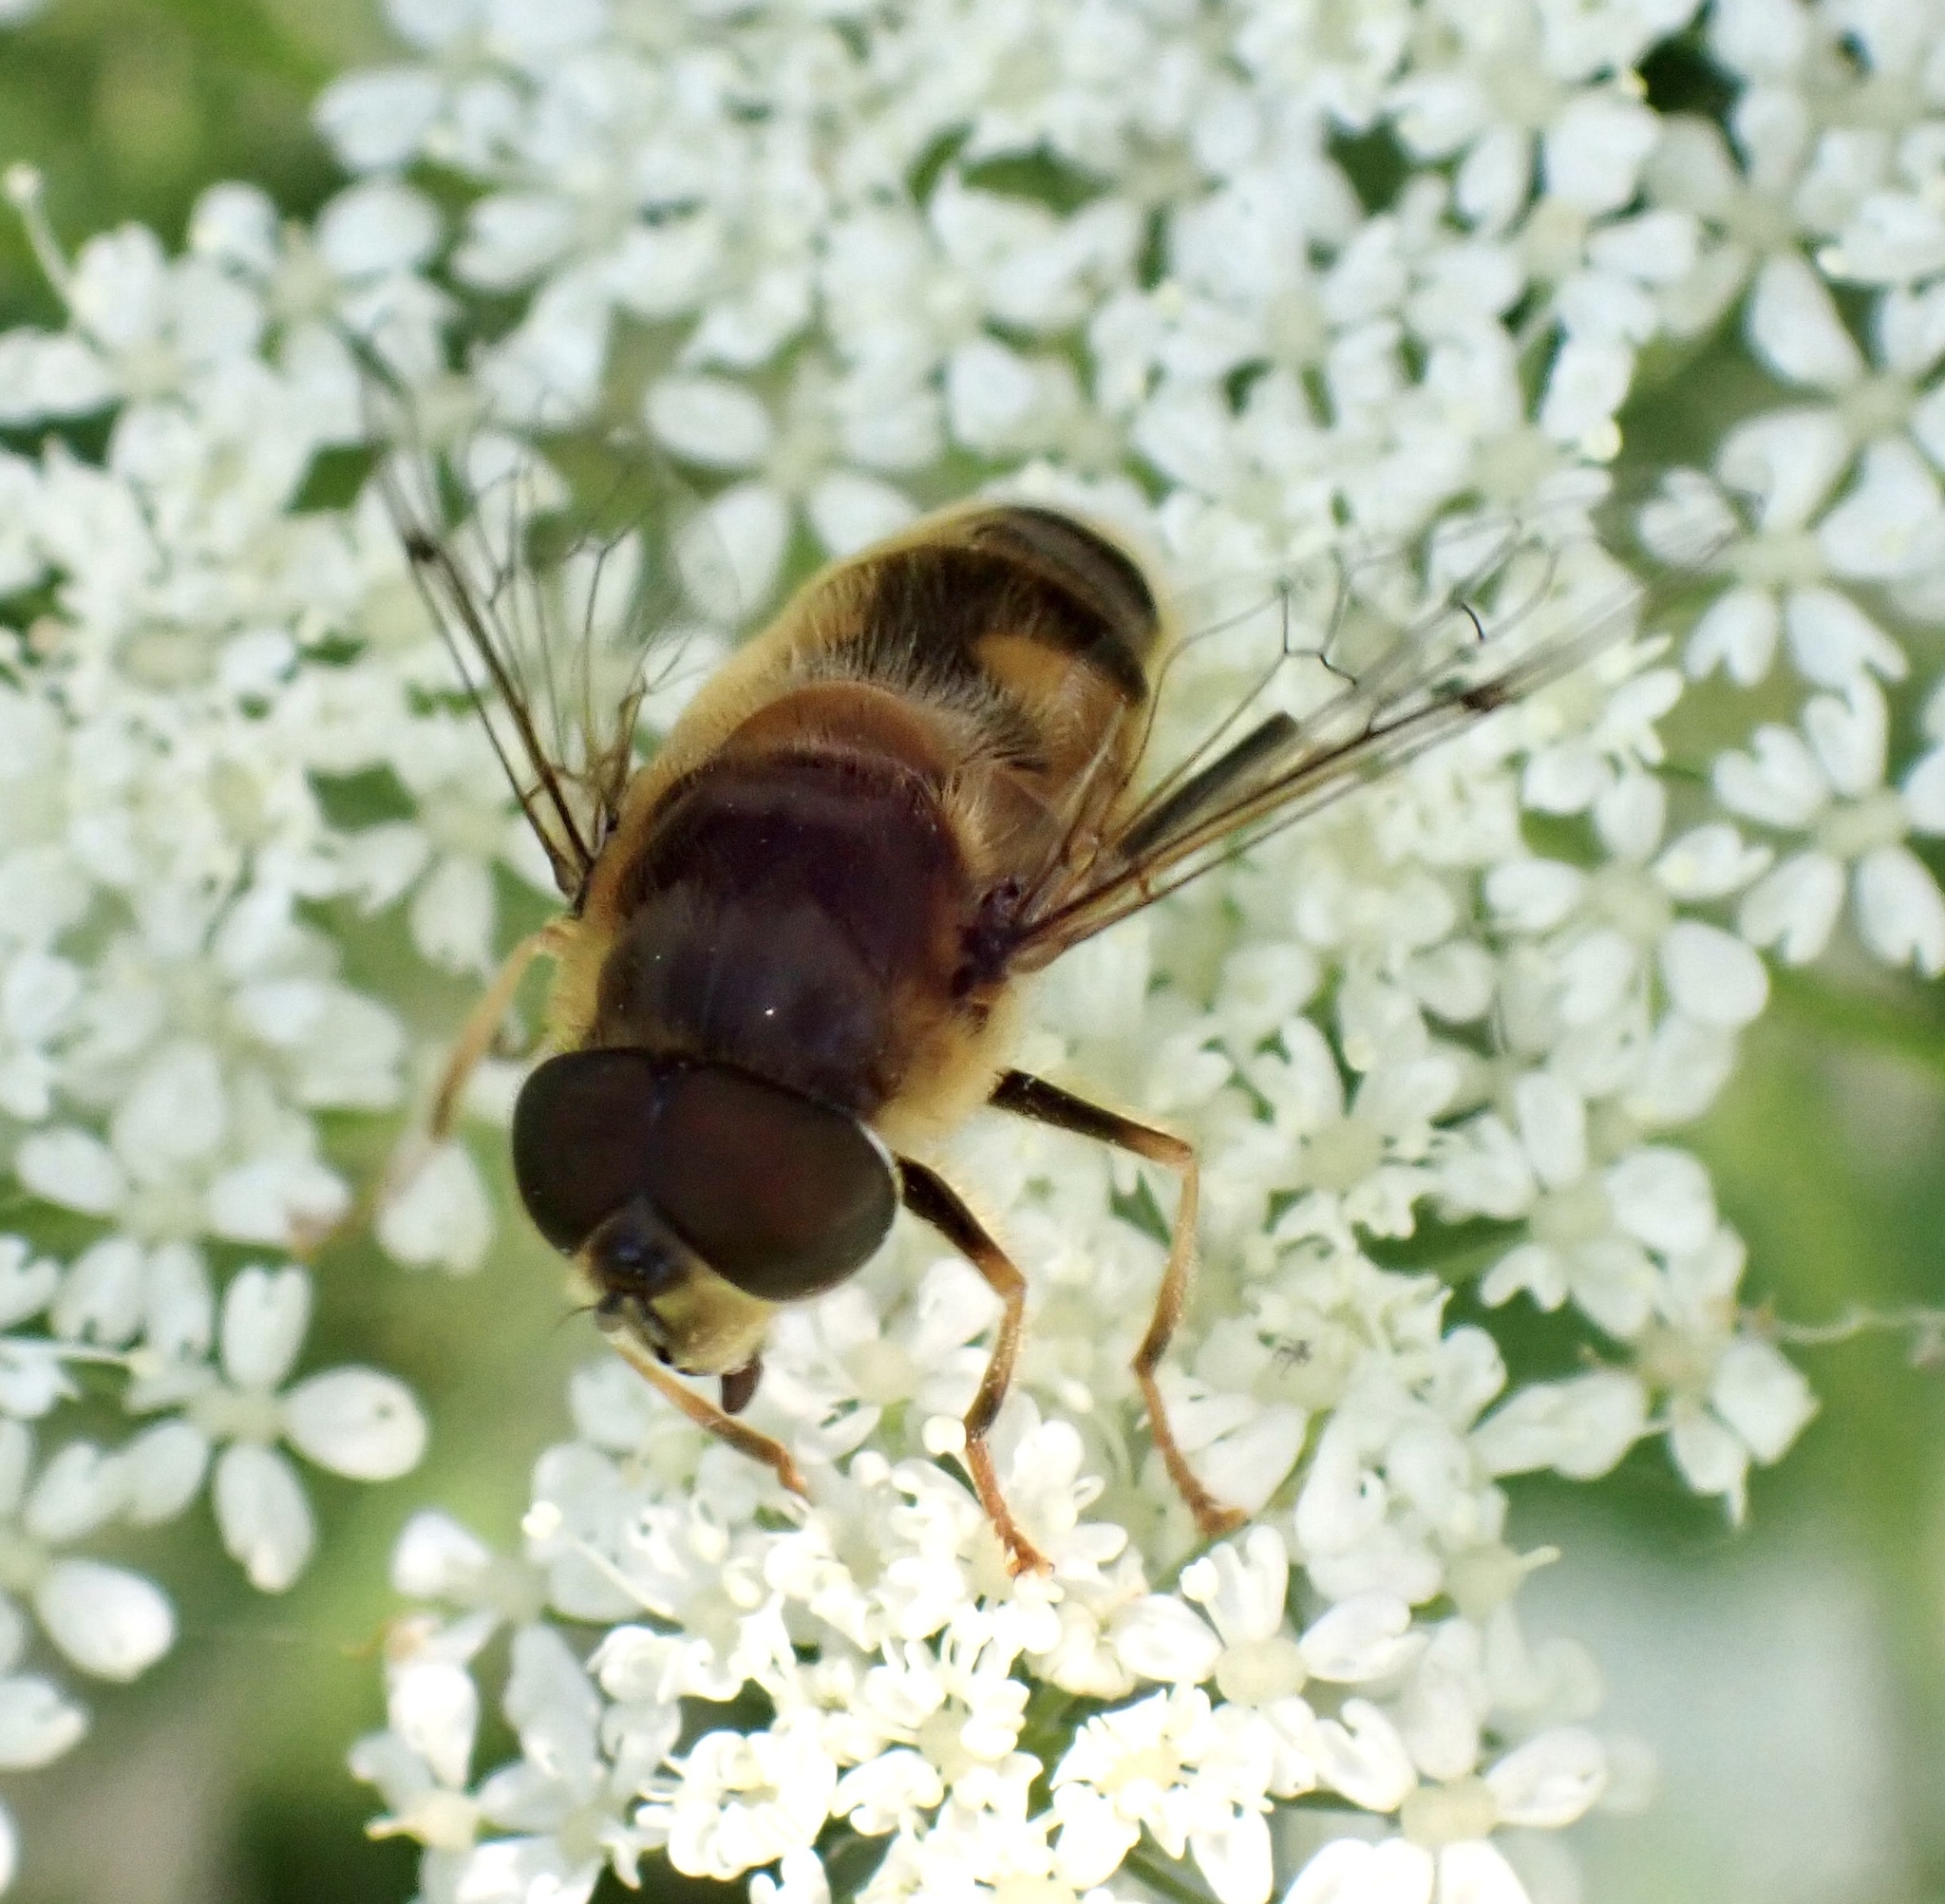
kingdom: Animalia
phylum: Arthropoda
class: Insecta
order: Diptera
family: Syrphidae
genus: Eristalis
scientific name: Eristalis pertinax
